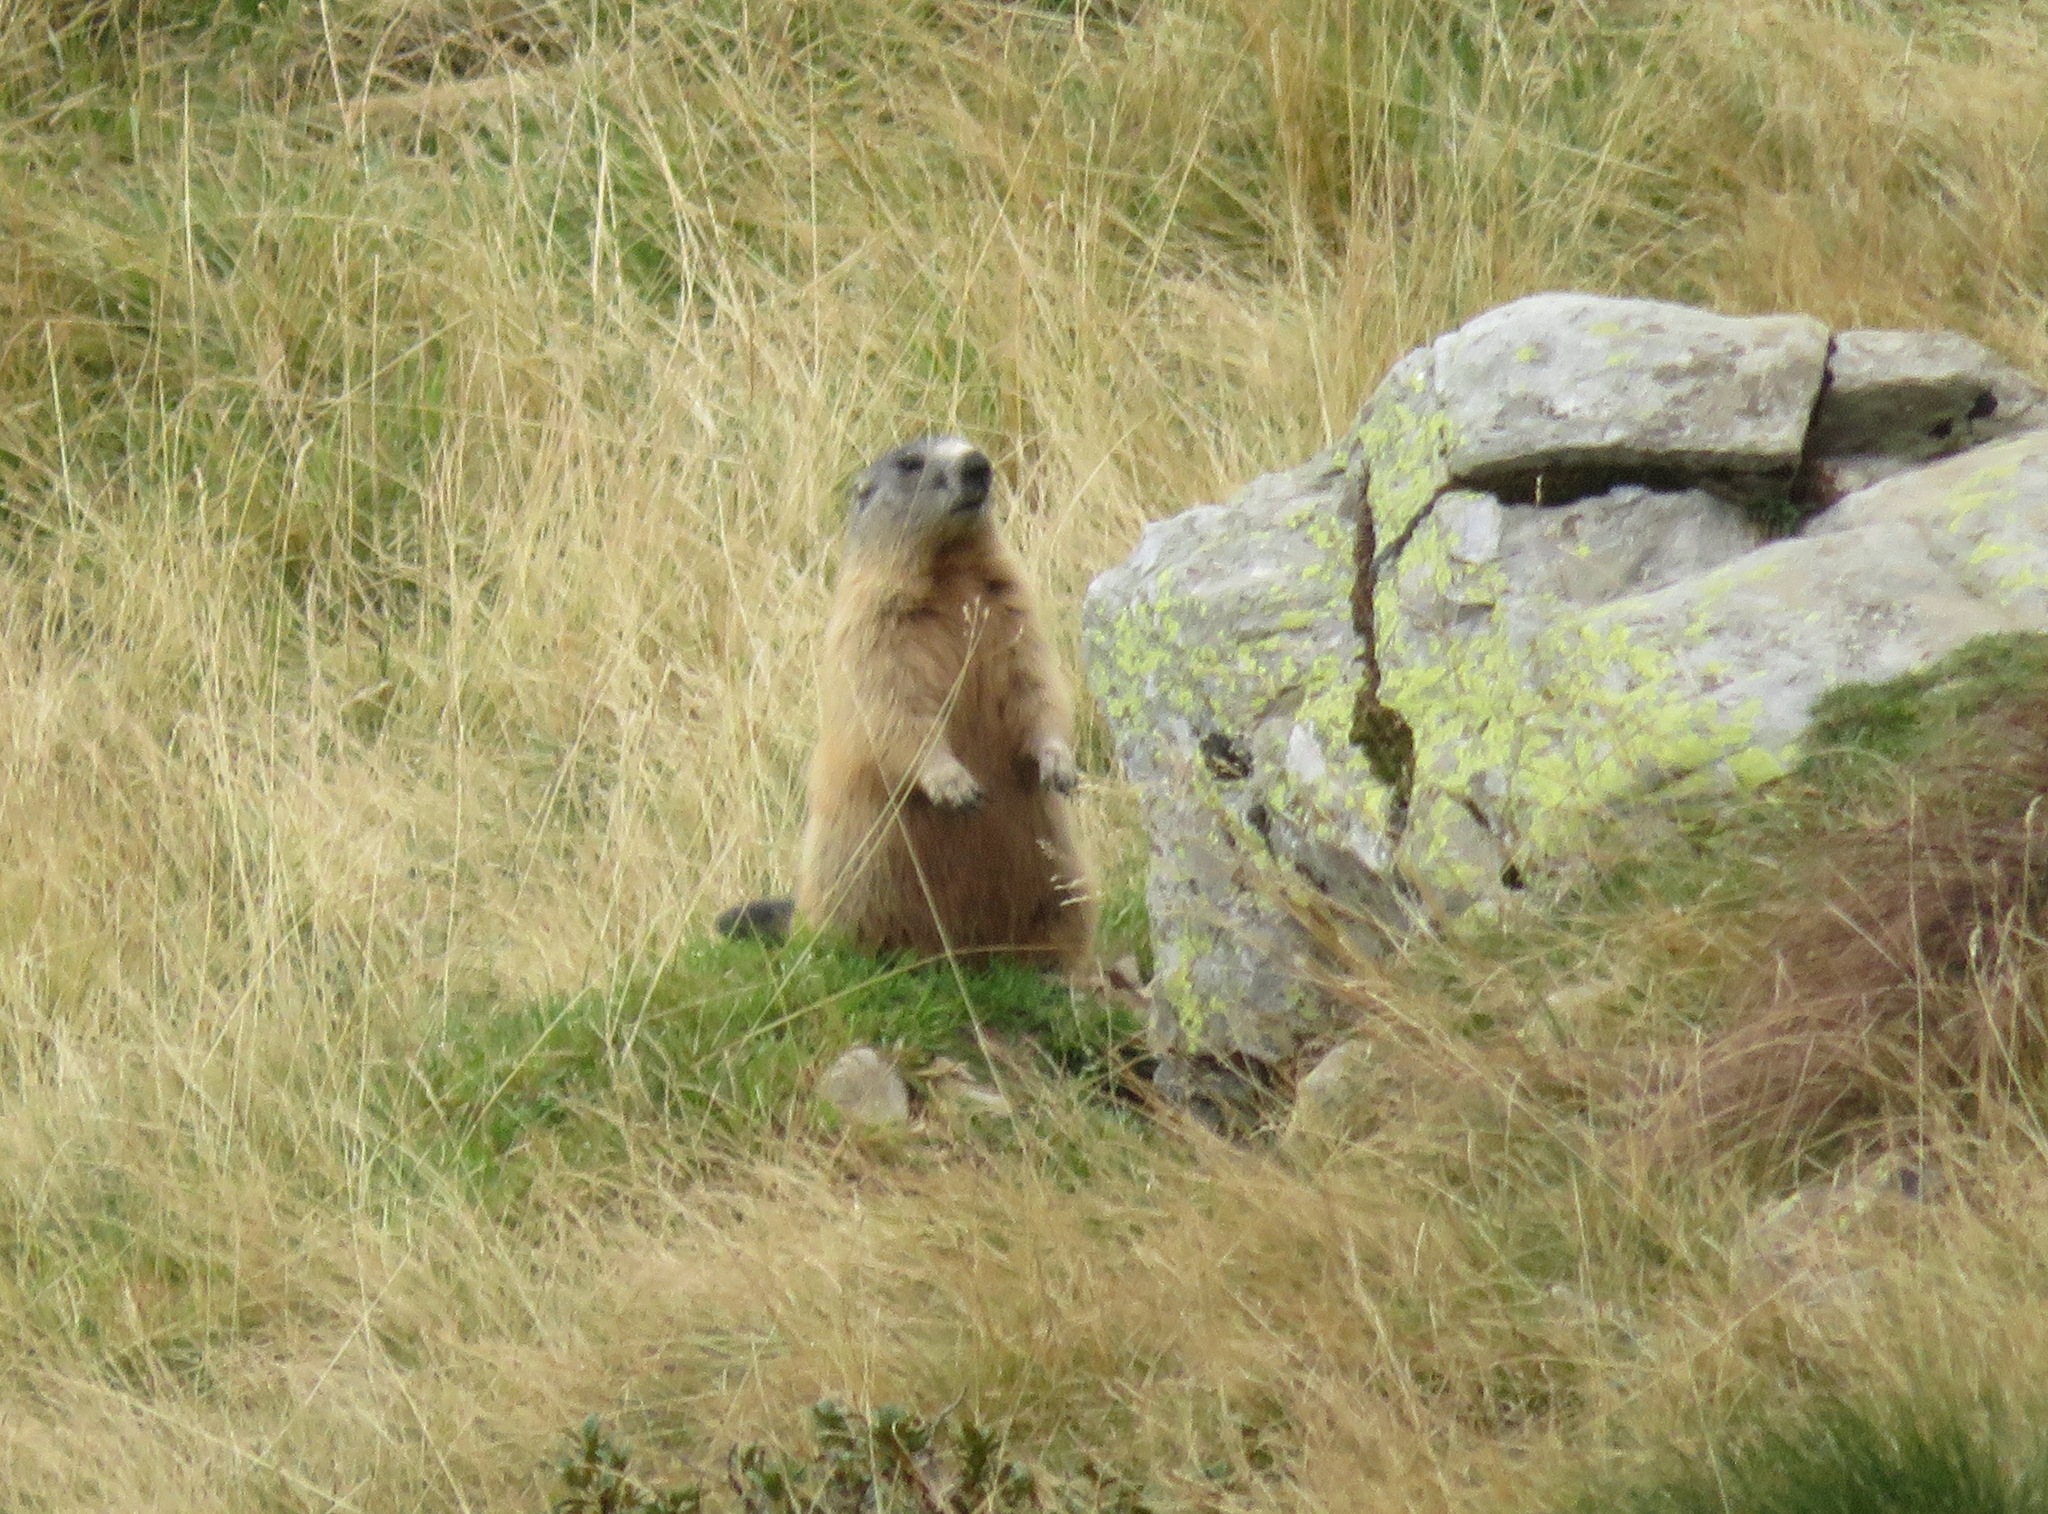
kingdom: Animalia
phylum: Chordata
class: Mammalia
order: Rodentia
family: Sciuridae
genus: Marmota
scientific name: Marmota marmota
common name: Alpine marmot
